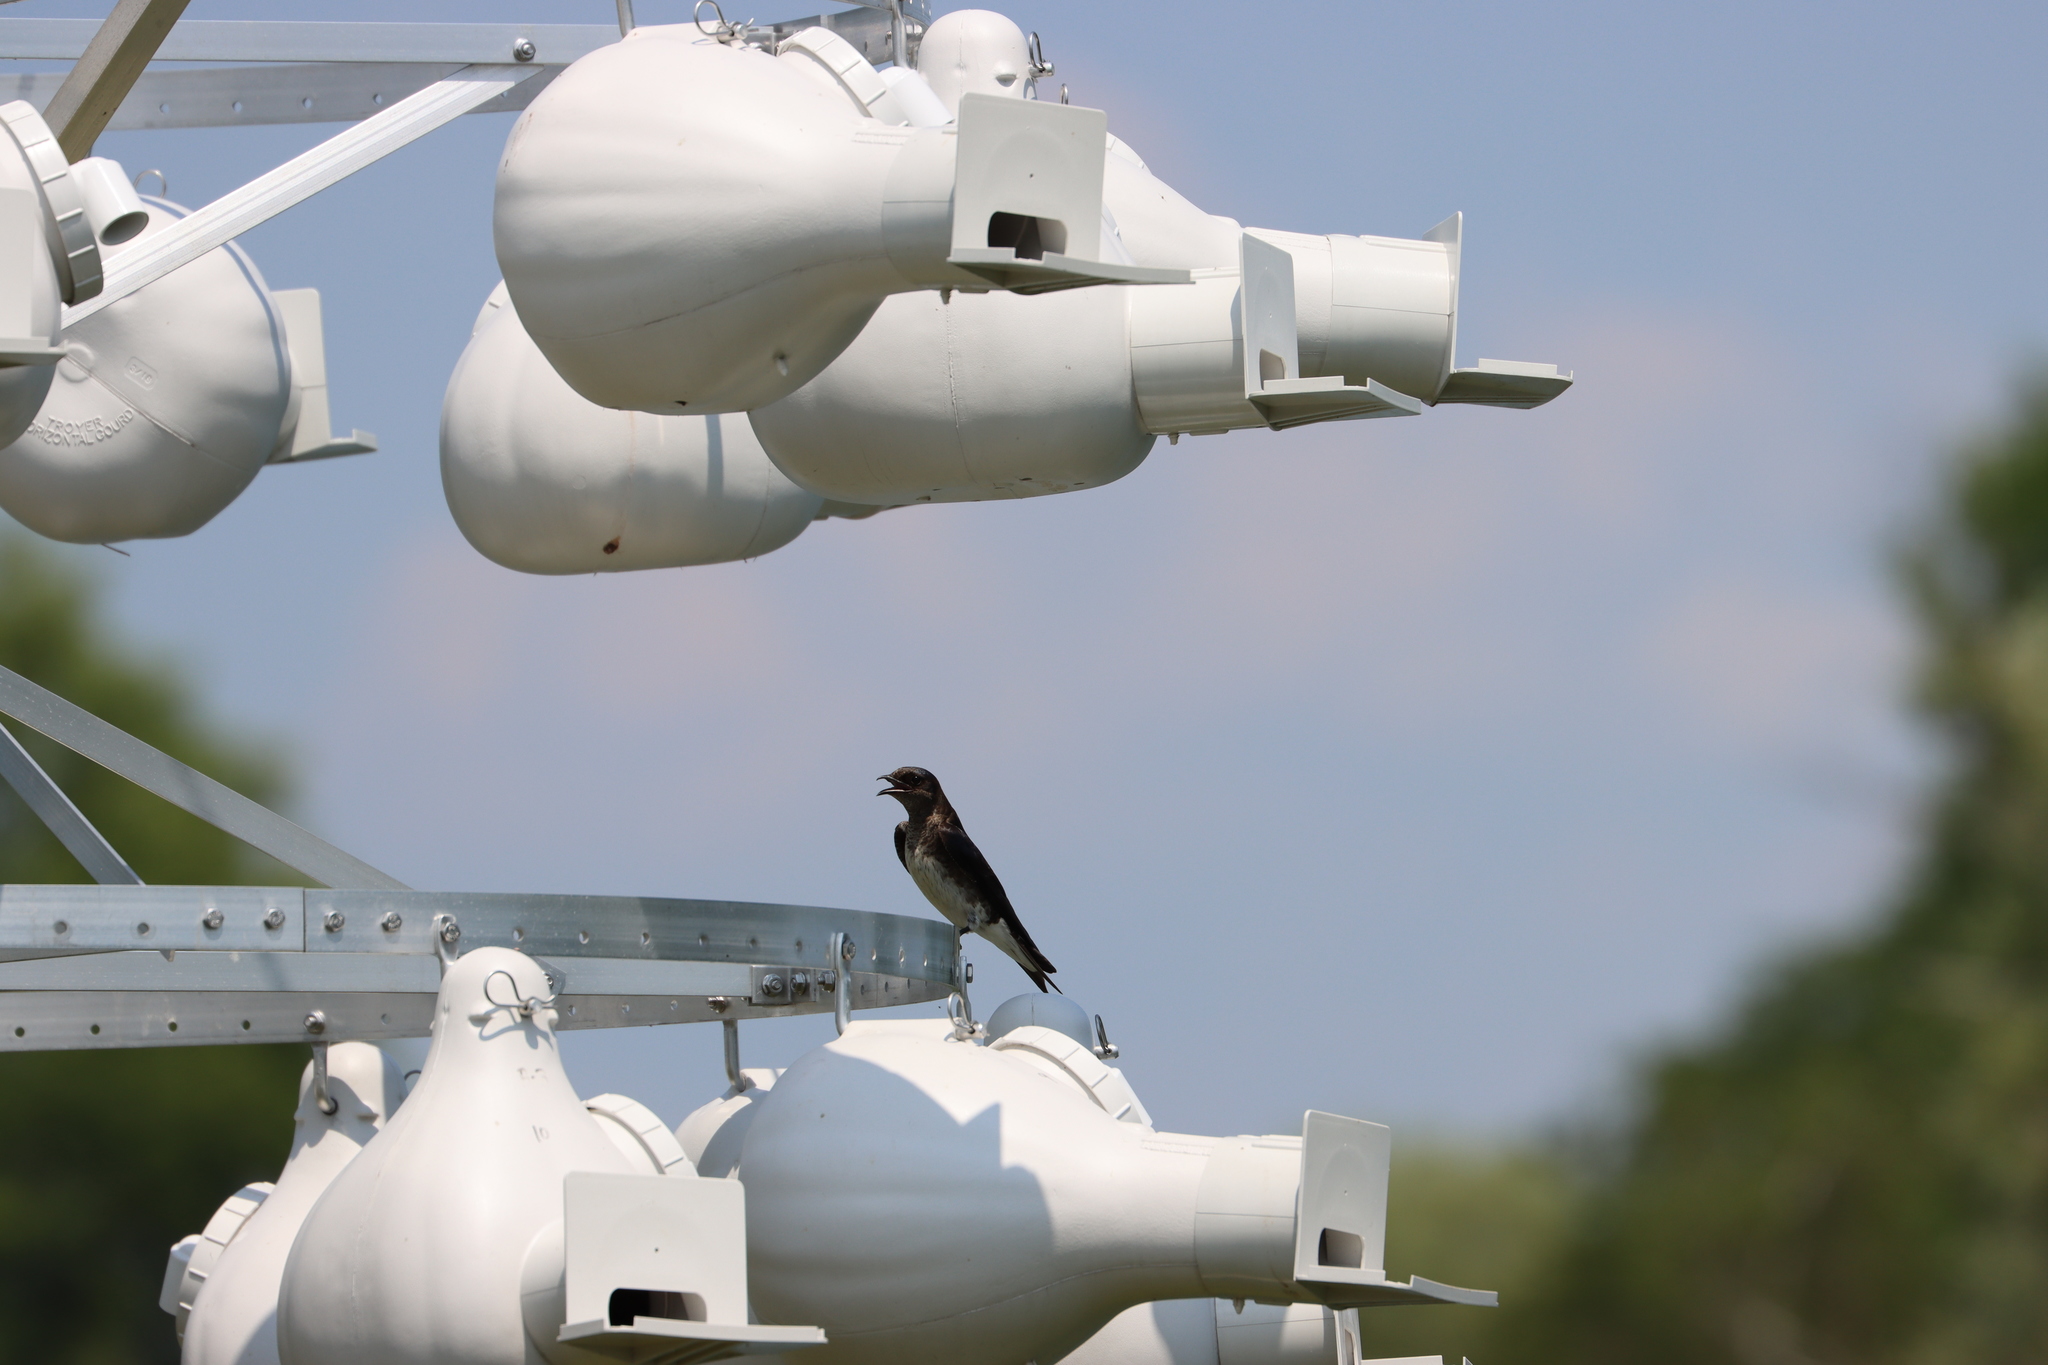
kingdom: Animalia
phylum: Chordata
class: Aves
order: Passeriformes
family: Hirundinidae
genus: Progne
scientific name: Progne subis
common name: Purple martin
